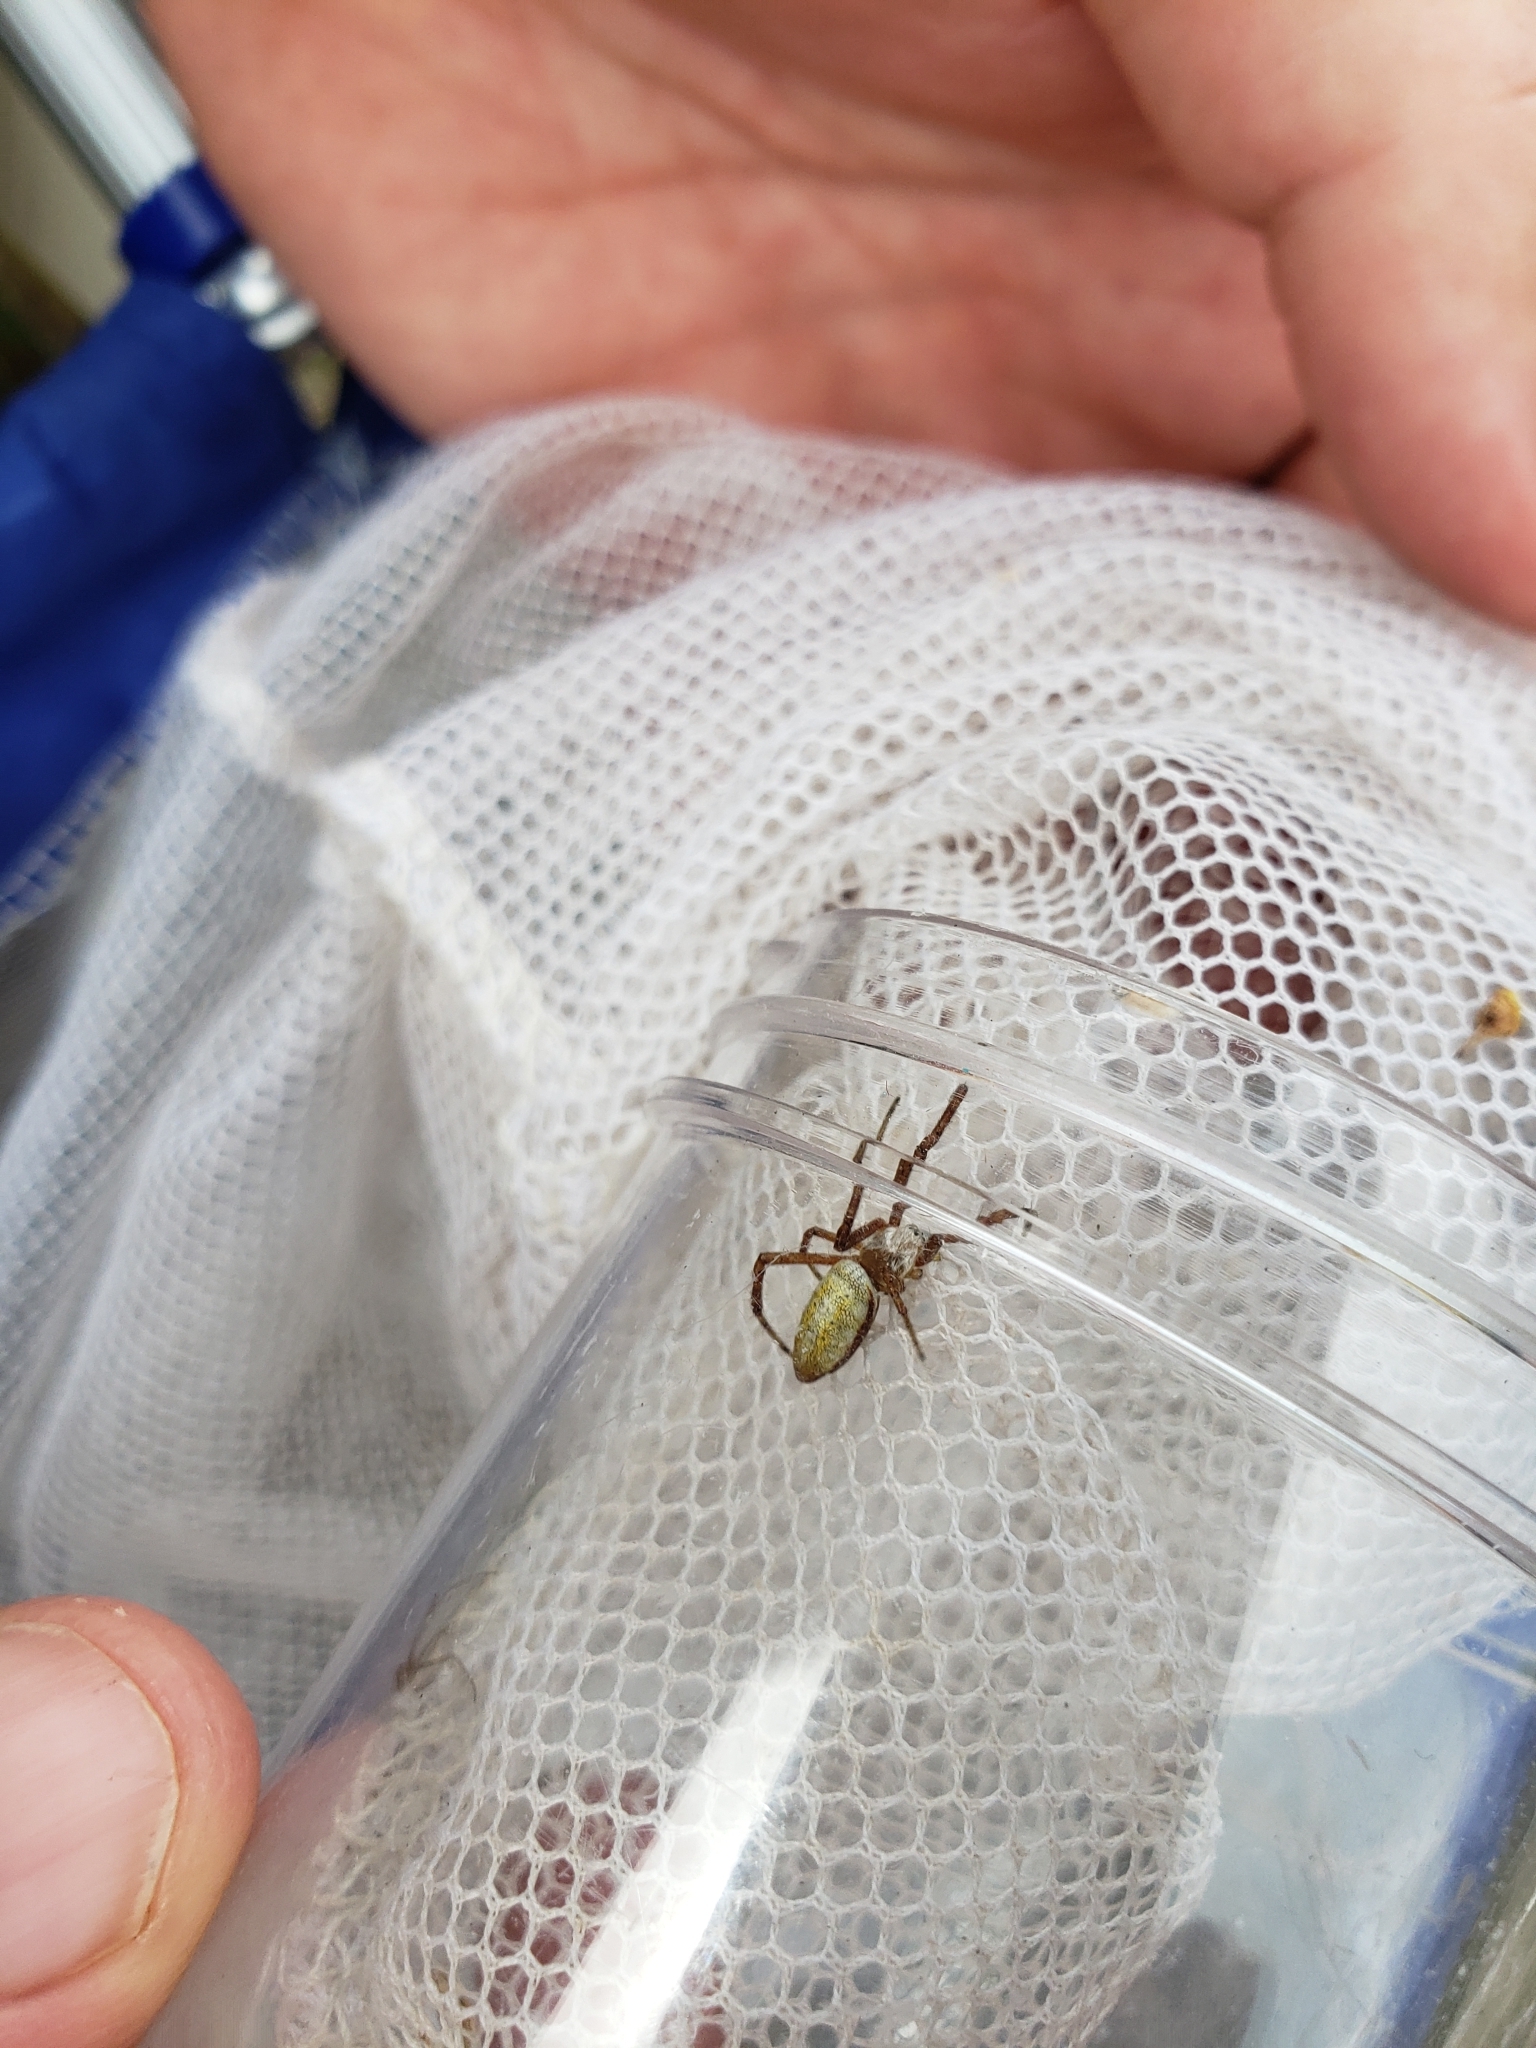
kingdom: Animalia
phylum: Arthropoda
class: Arachnida
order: Araneae
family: Araneidae
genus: Argiope
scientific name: Argiope trifasciata
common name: Banded garden spider
